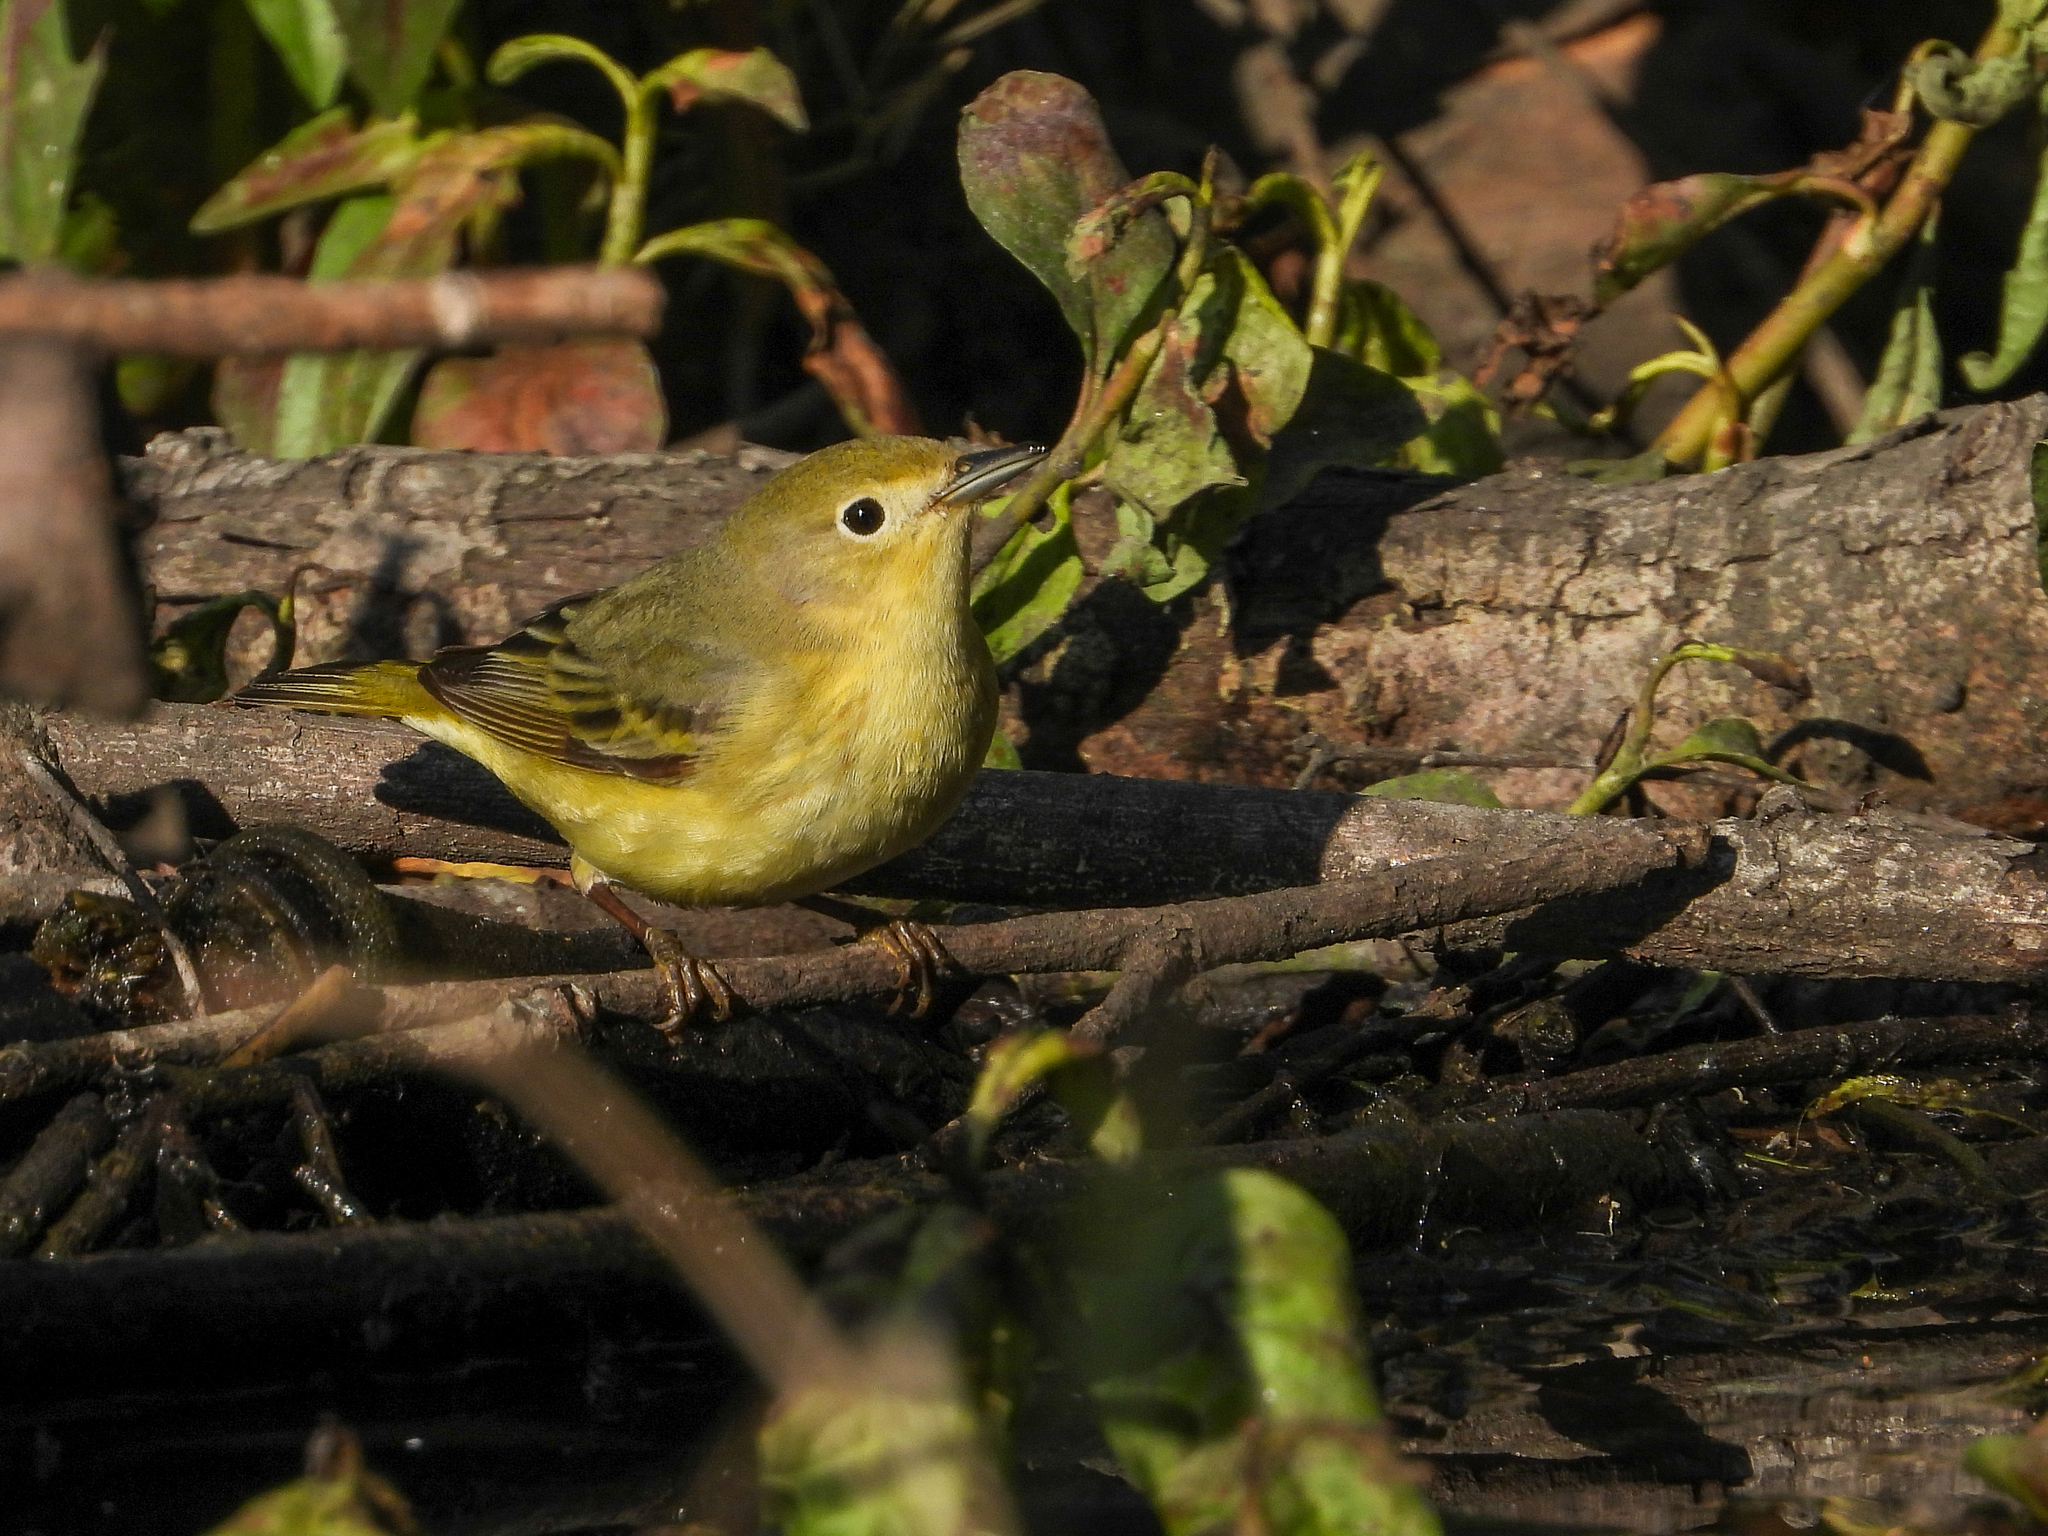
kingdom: Animalia
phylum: Chordata
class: Aves
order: Passeriformes
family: Parulidae
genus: Setophaga
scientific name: Setophaga petechia
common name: Yellow warbler
